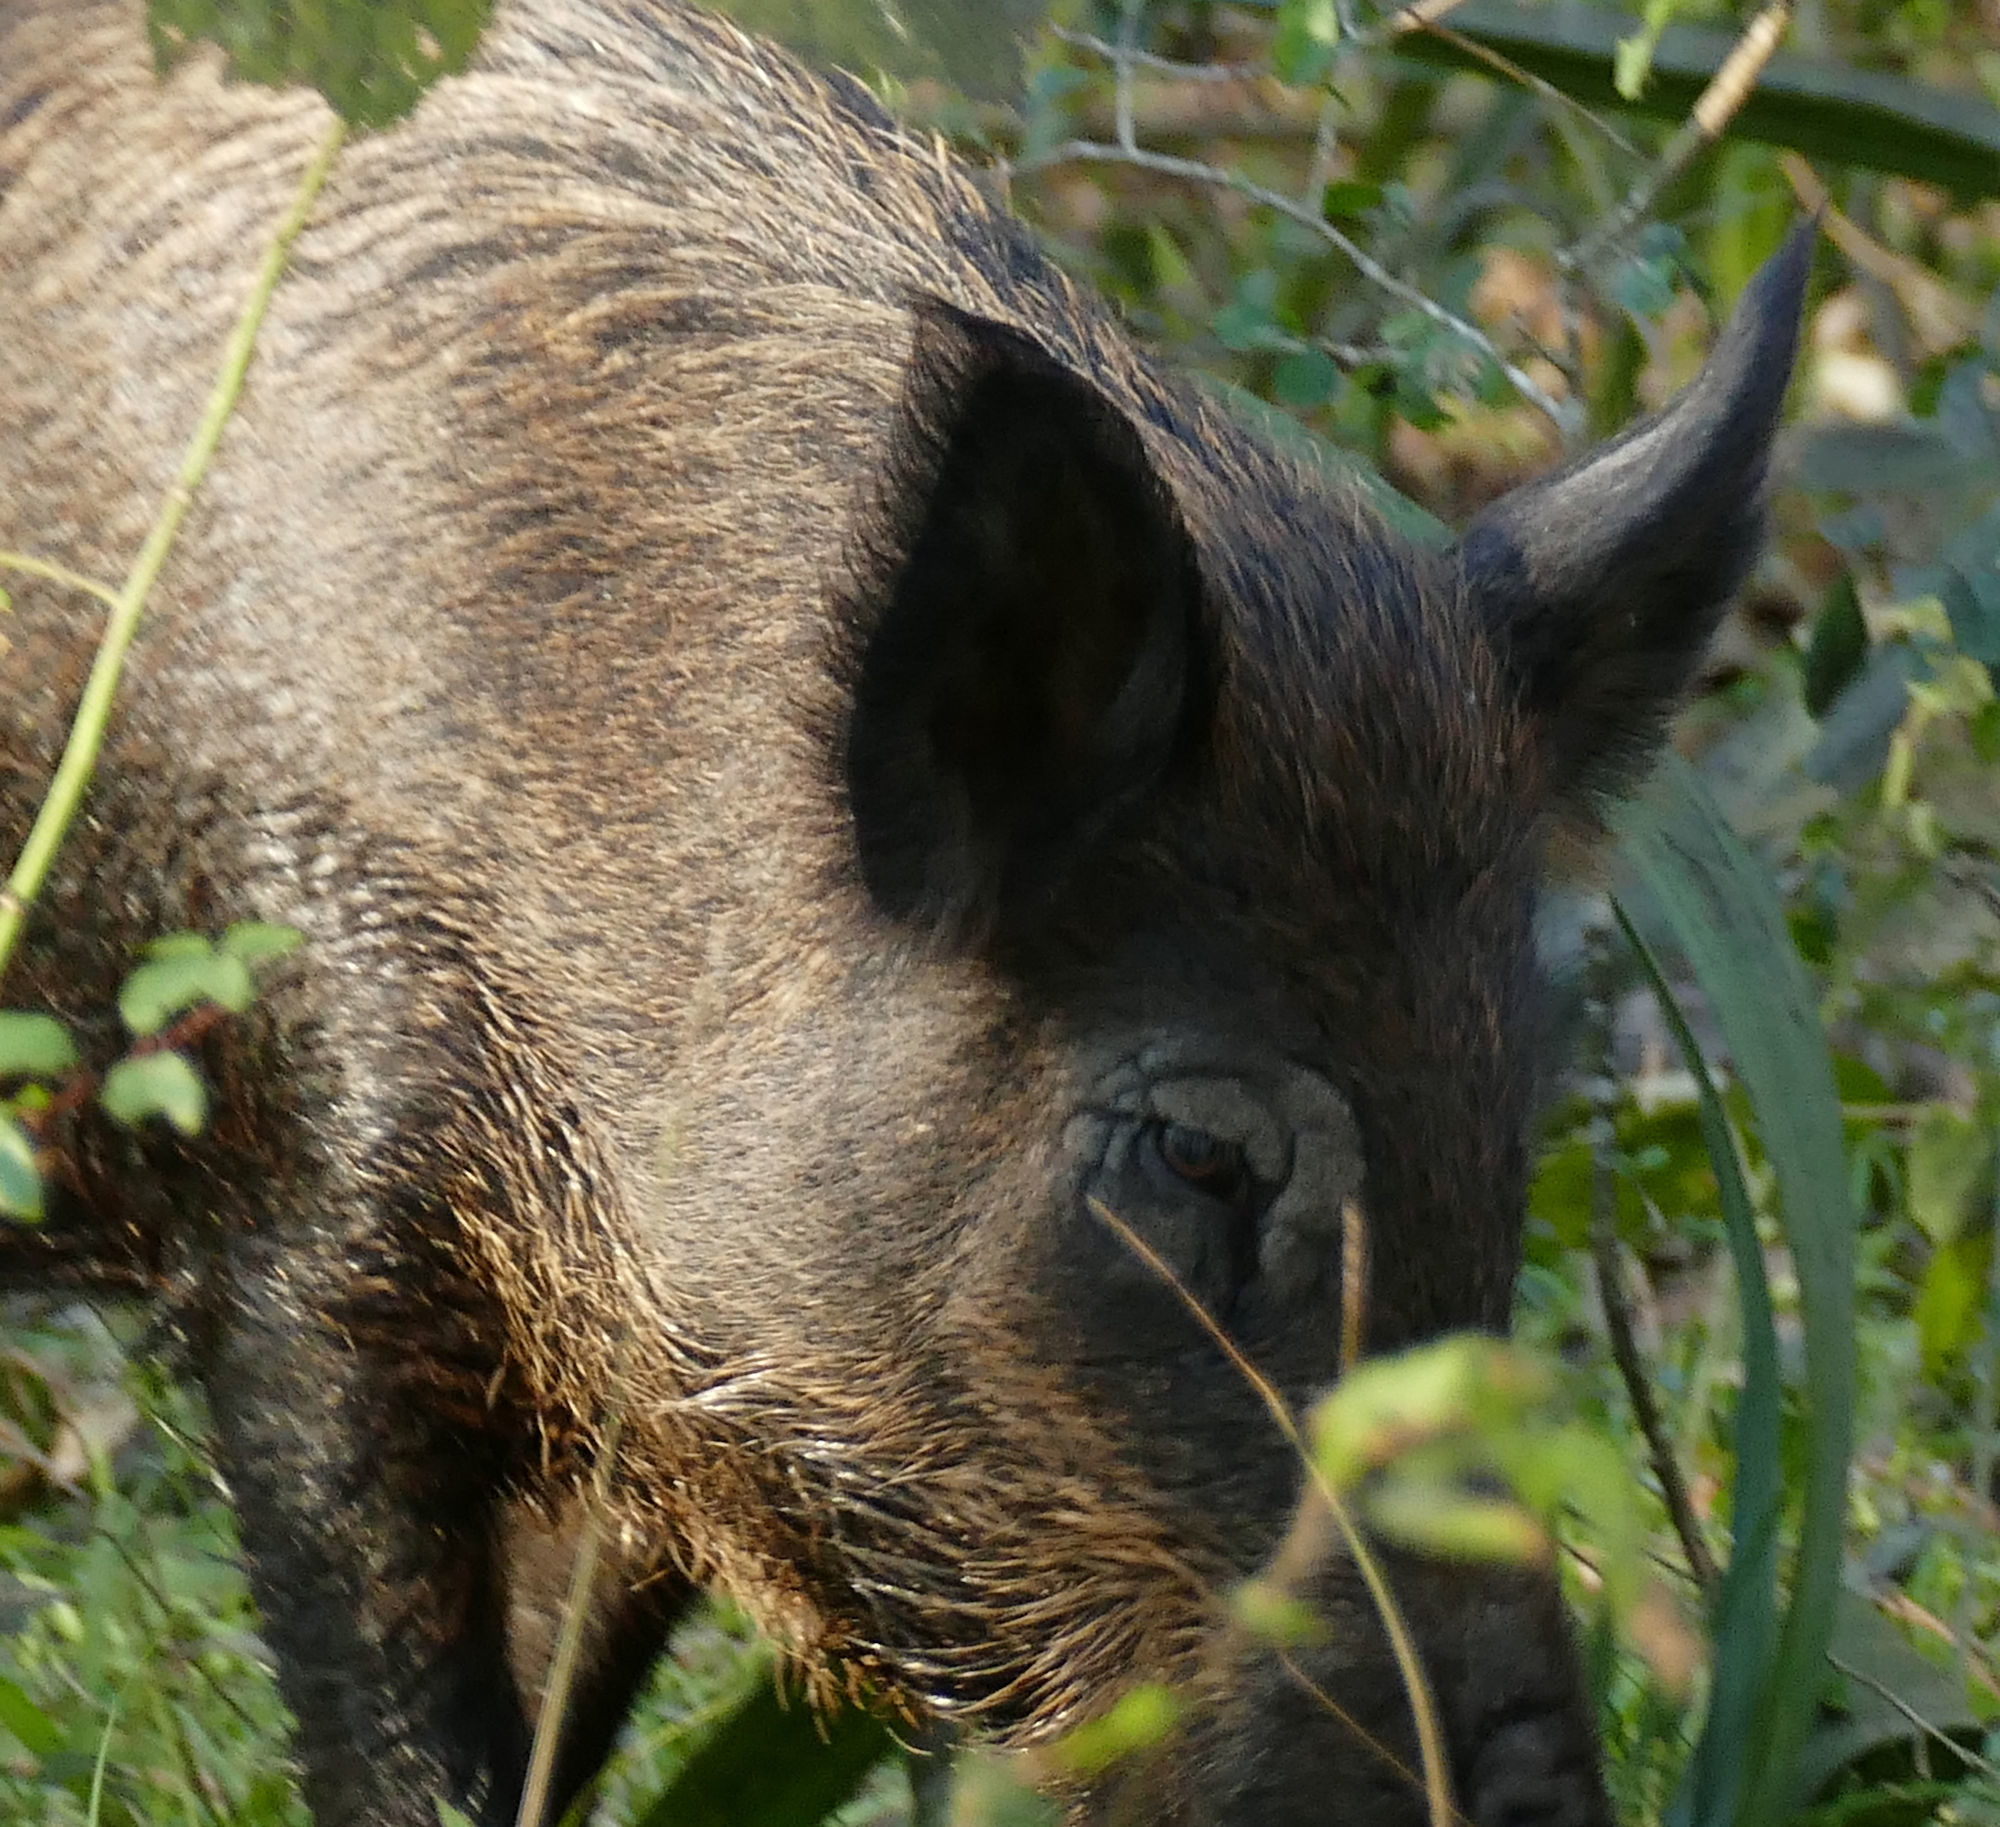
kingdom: Animalia
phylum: Chordata
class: Mammalia
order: Artiodactyla
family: Suidae
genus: Sus
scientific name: Sus scrofa
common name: Wild boar
